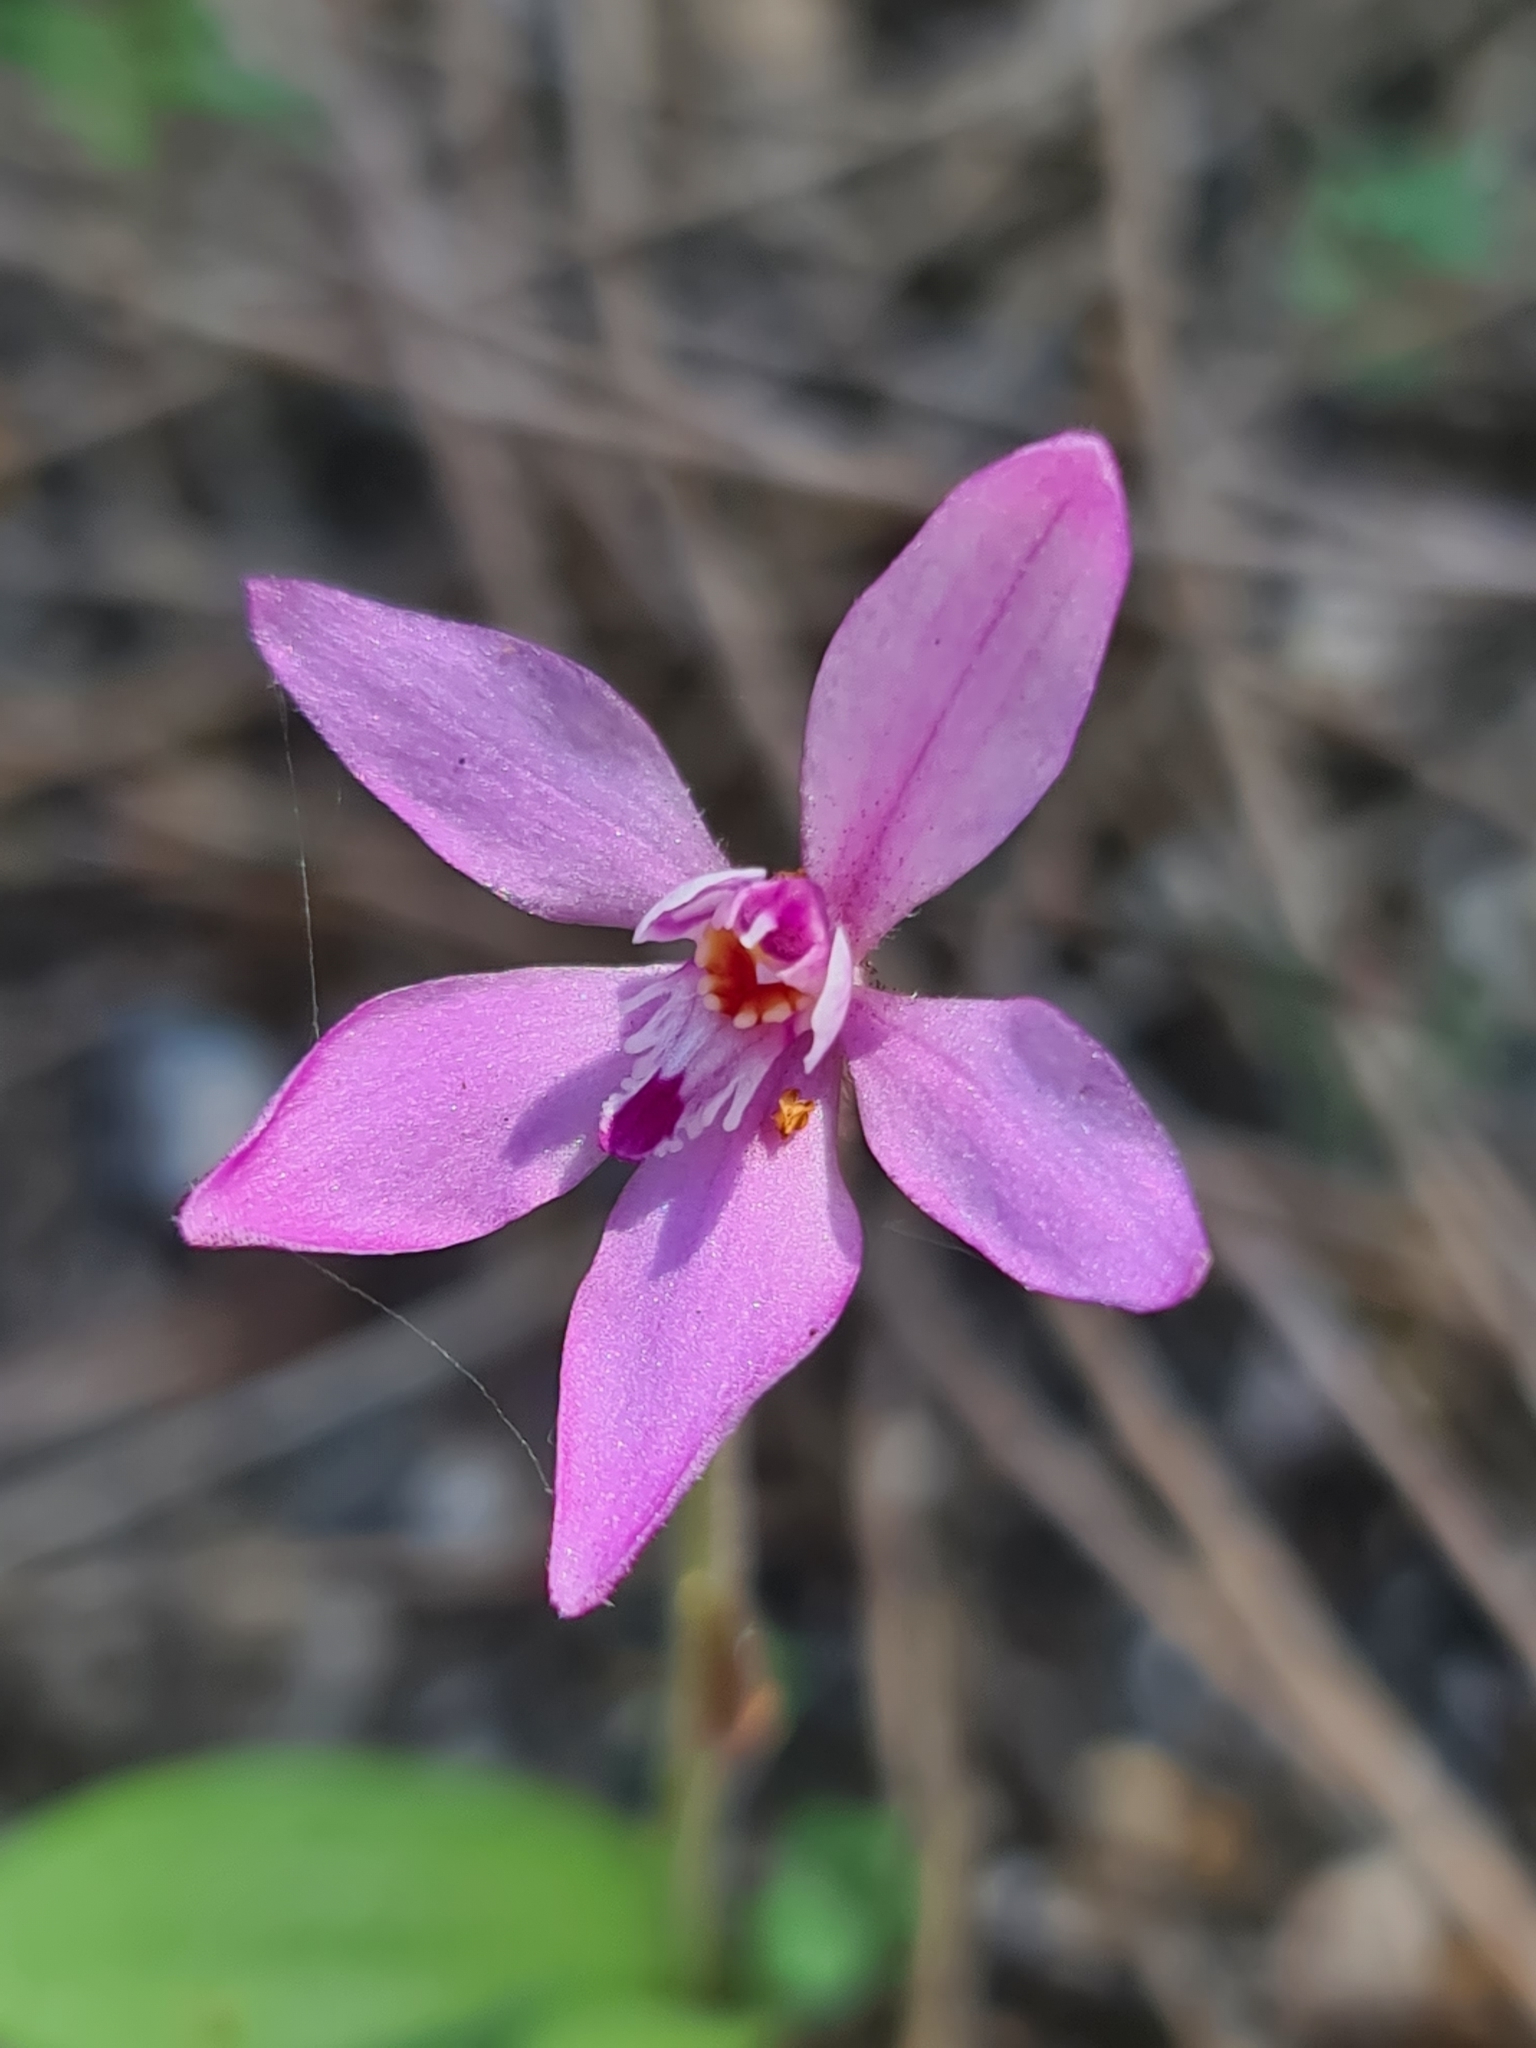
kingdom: Plantae
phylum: Tracheophyta
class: Liliopsida
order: Asparagales
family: Orchidaceae
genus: Caladenia
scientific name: Caladenia reptans
